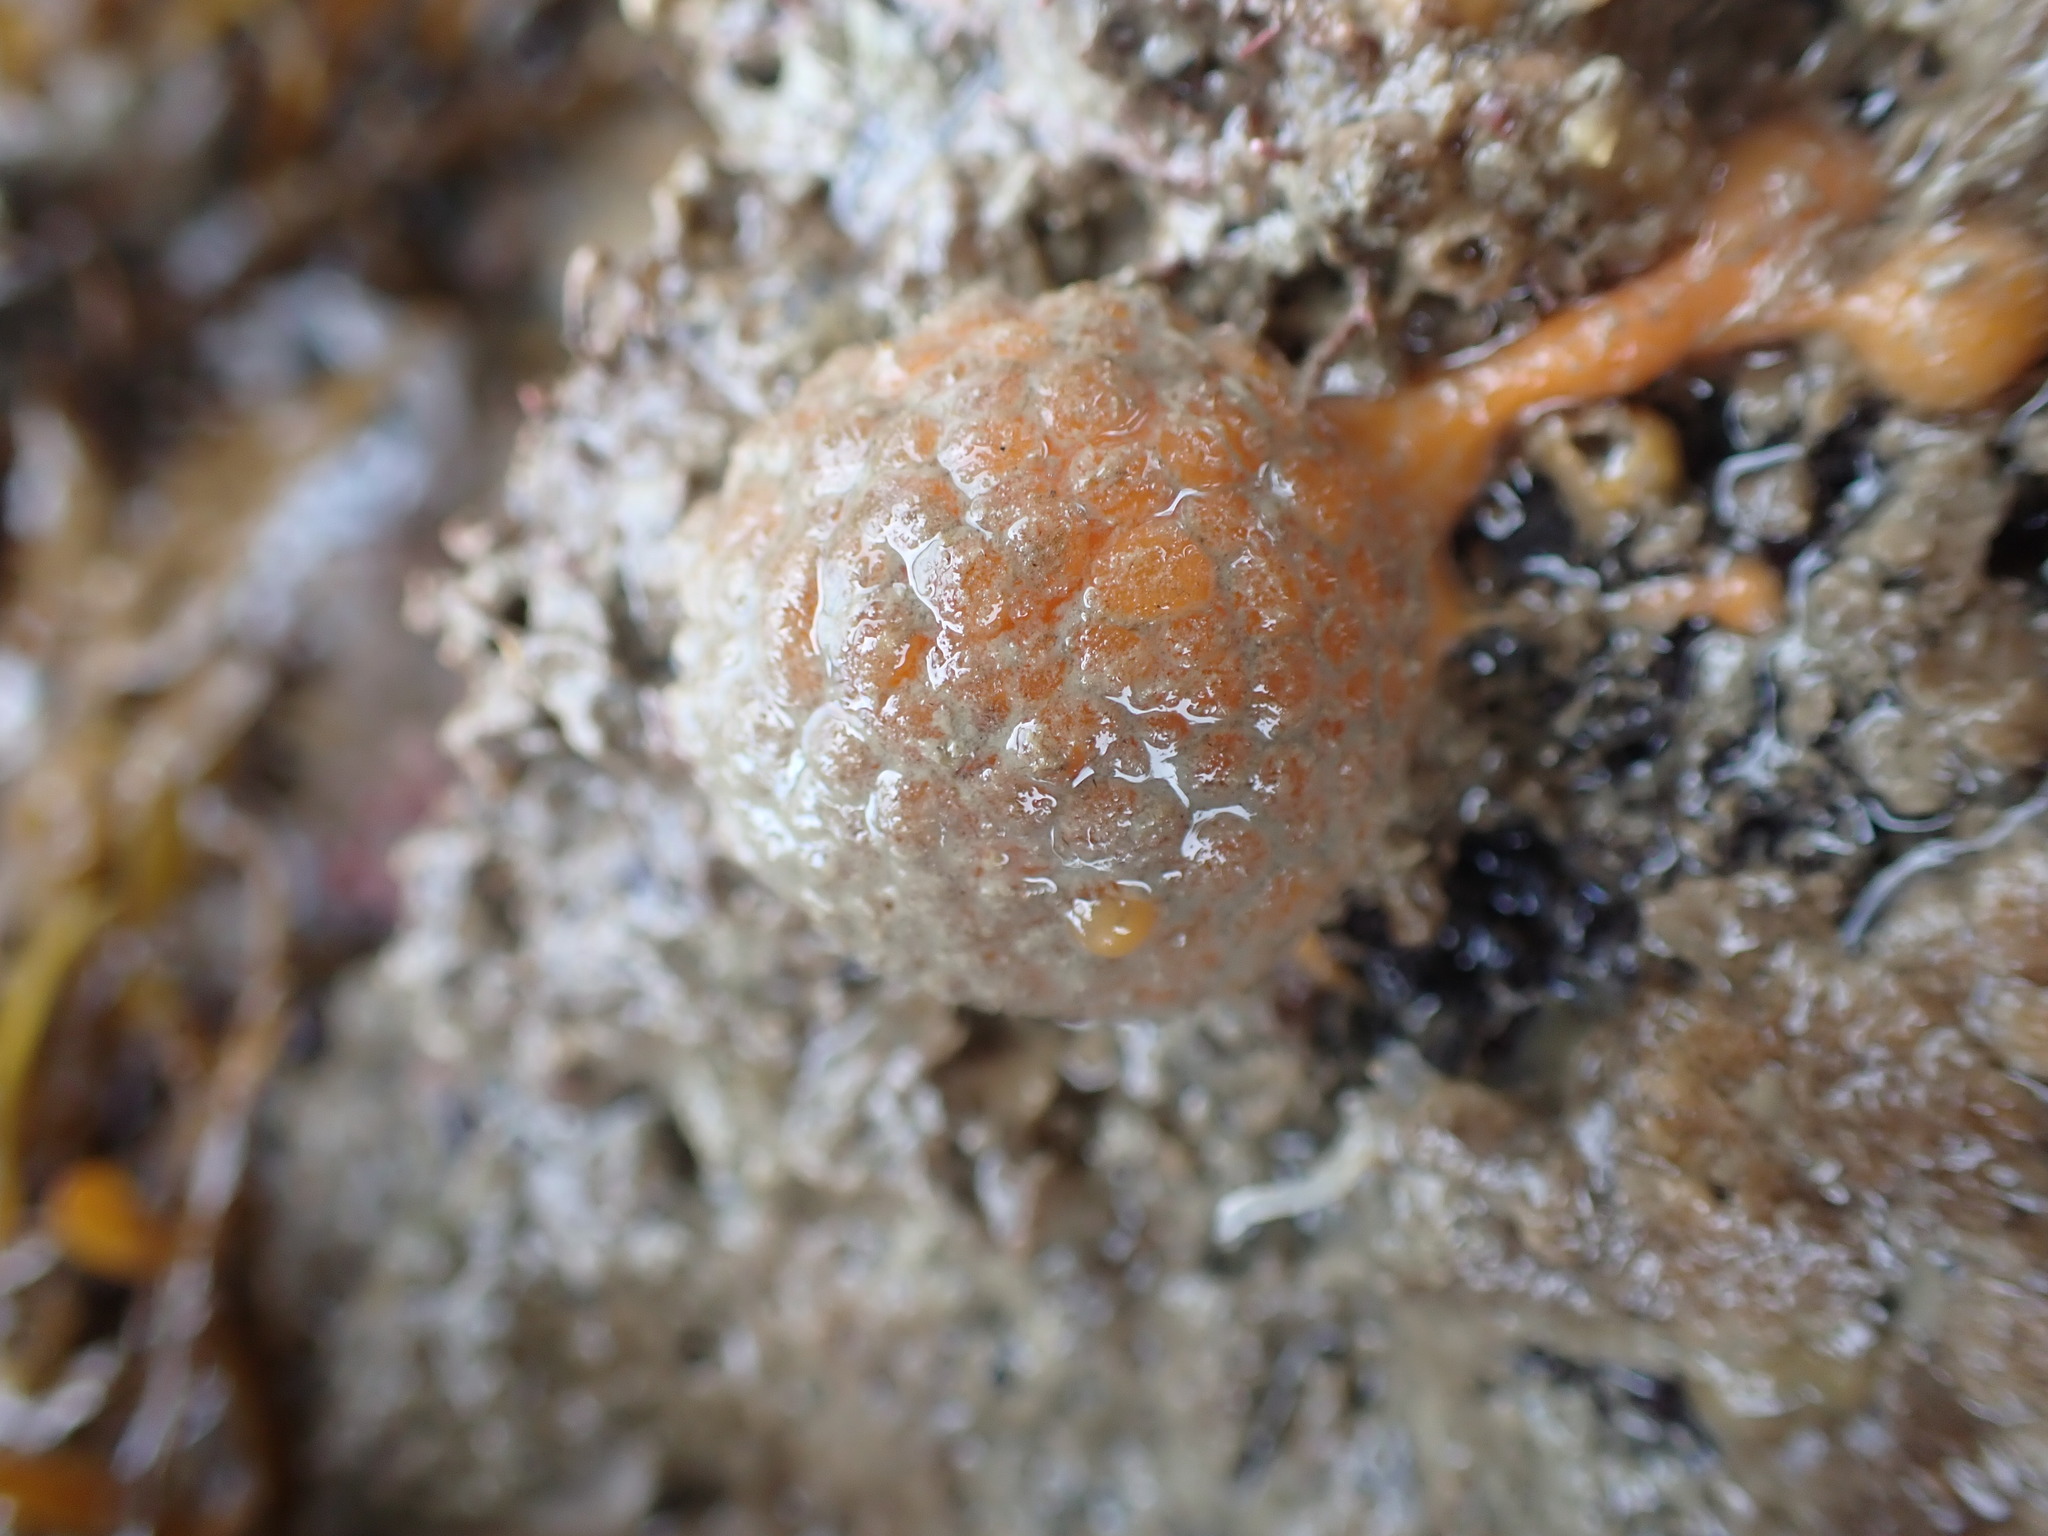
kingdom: Animalia
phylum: Porifera
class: Demospongiae
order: Tethyida
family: Tethyidae
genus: Tethya
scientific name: Tethya burtoni
